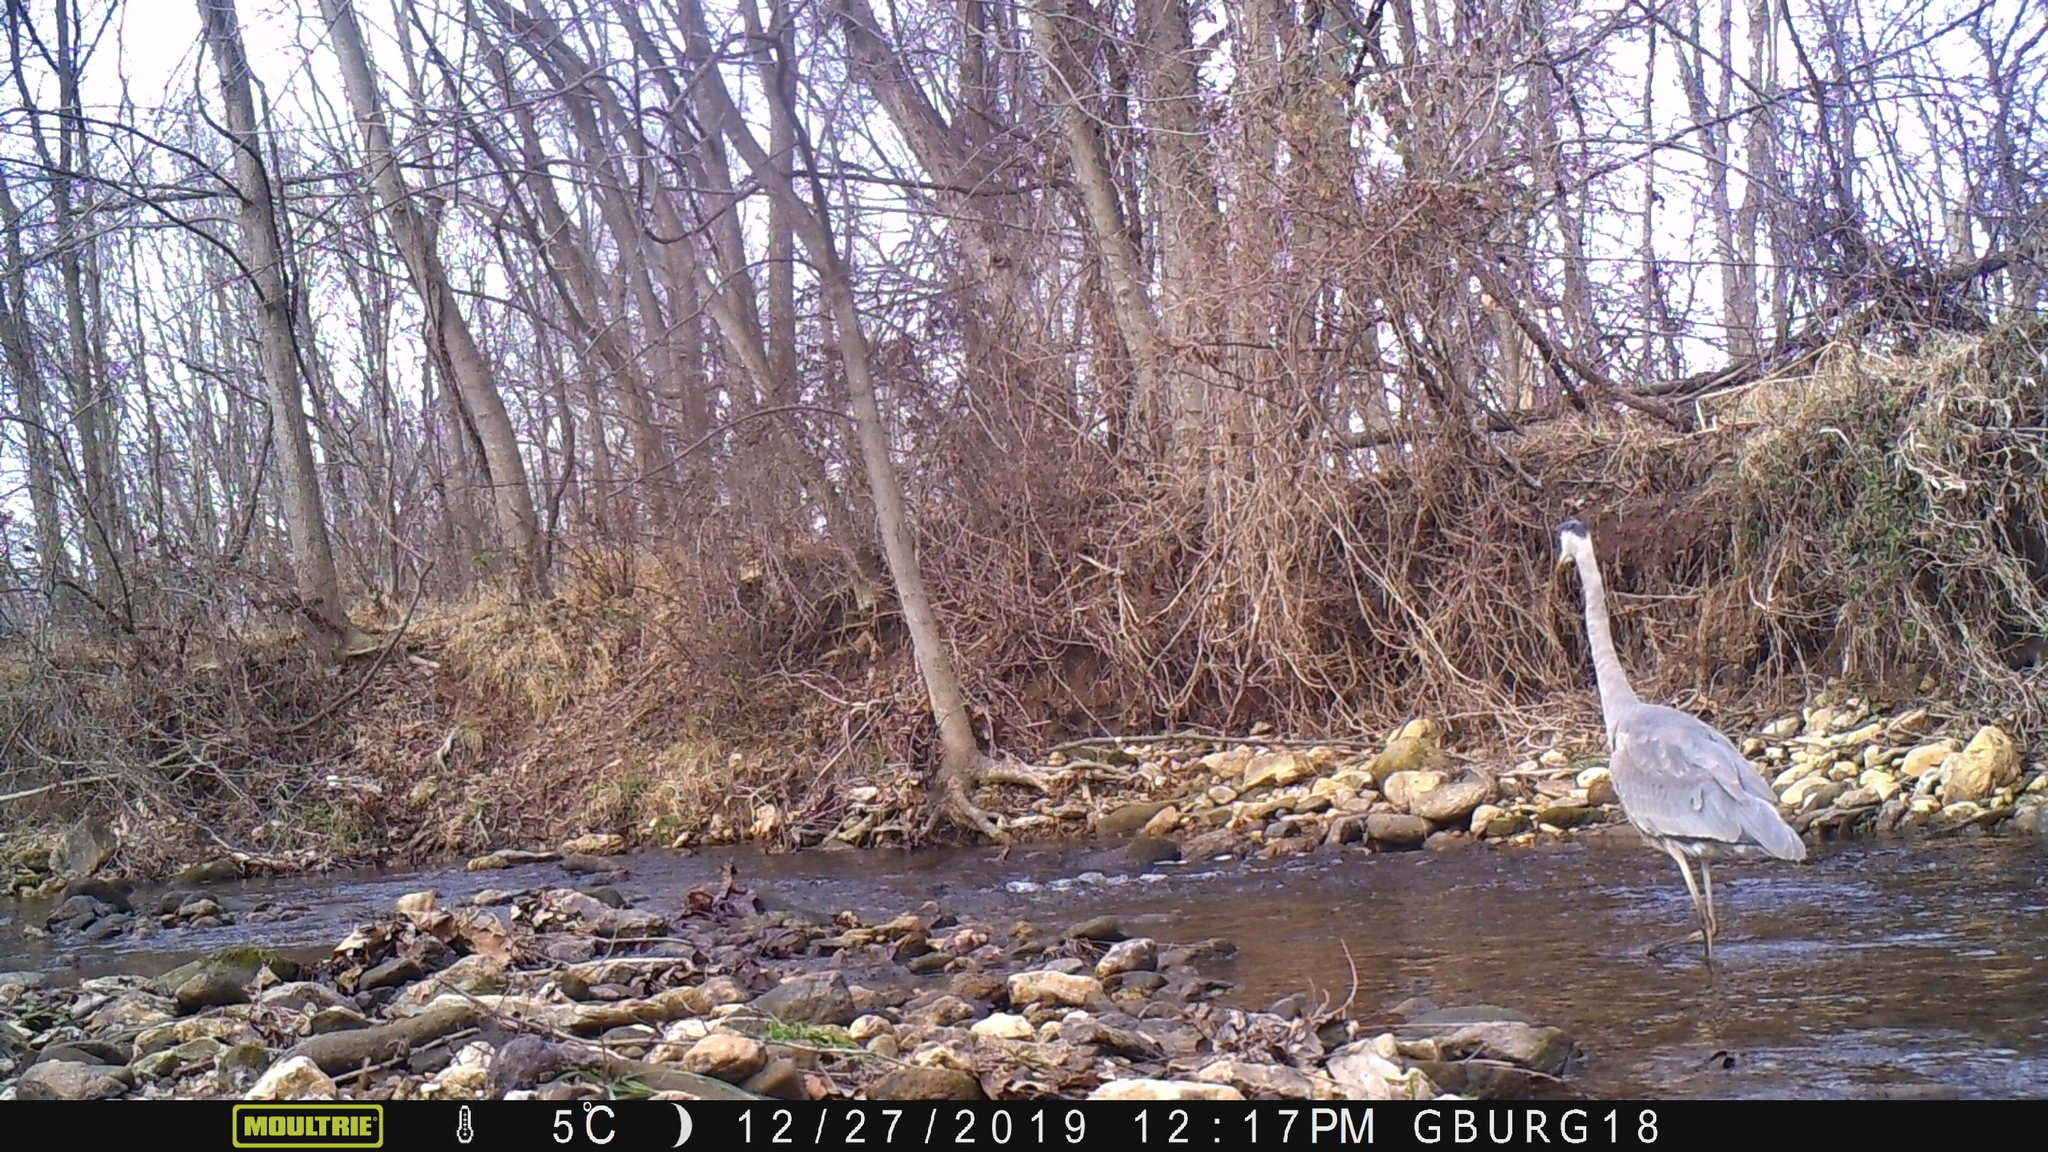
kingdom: Animalia
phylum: Chordata
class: Aves
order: Pelecaniformes
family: Ardeidae
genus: Ardea
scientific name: Ardea herodias
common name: Great blue heron
